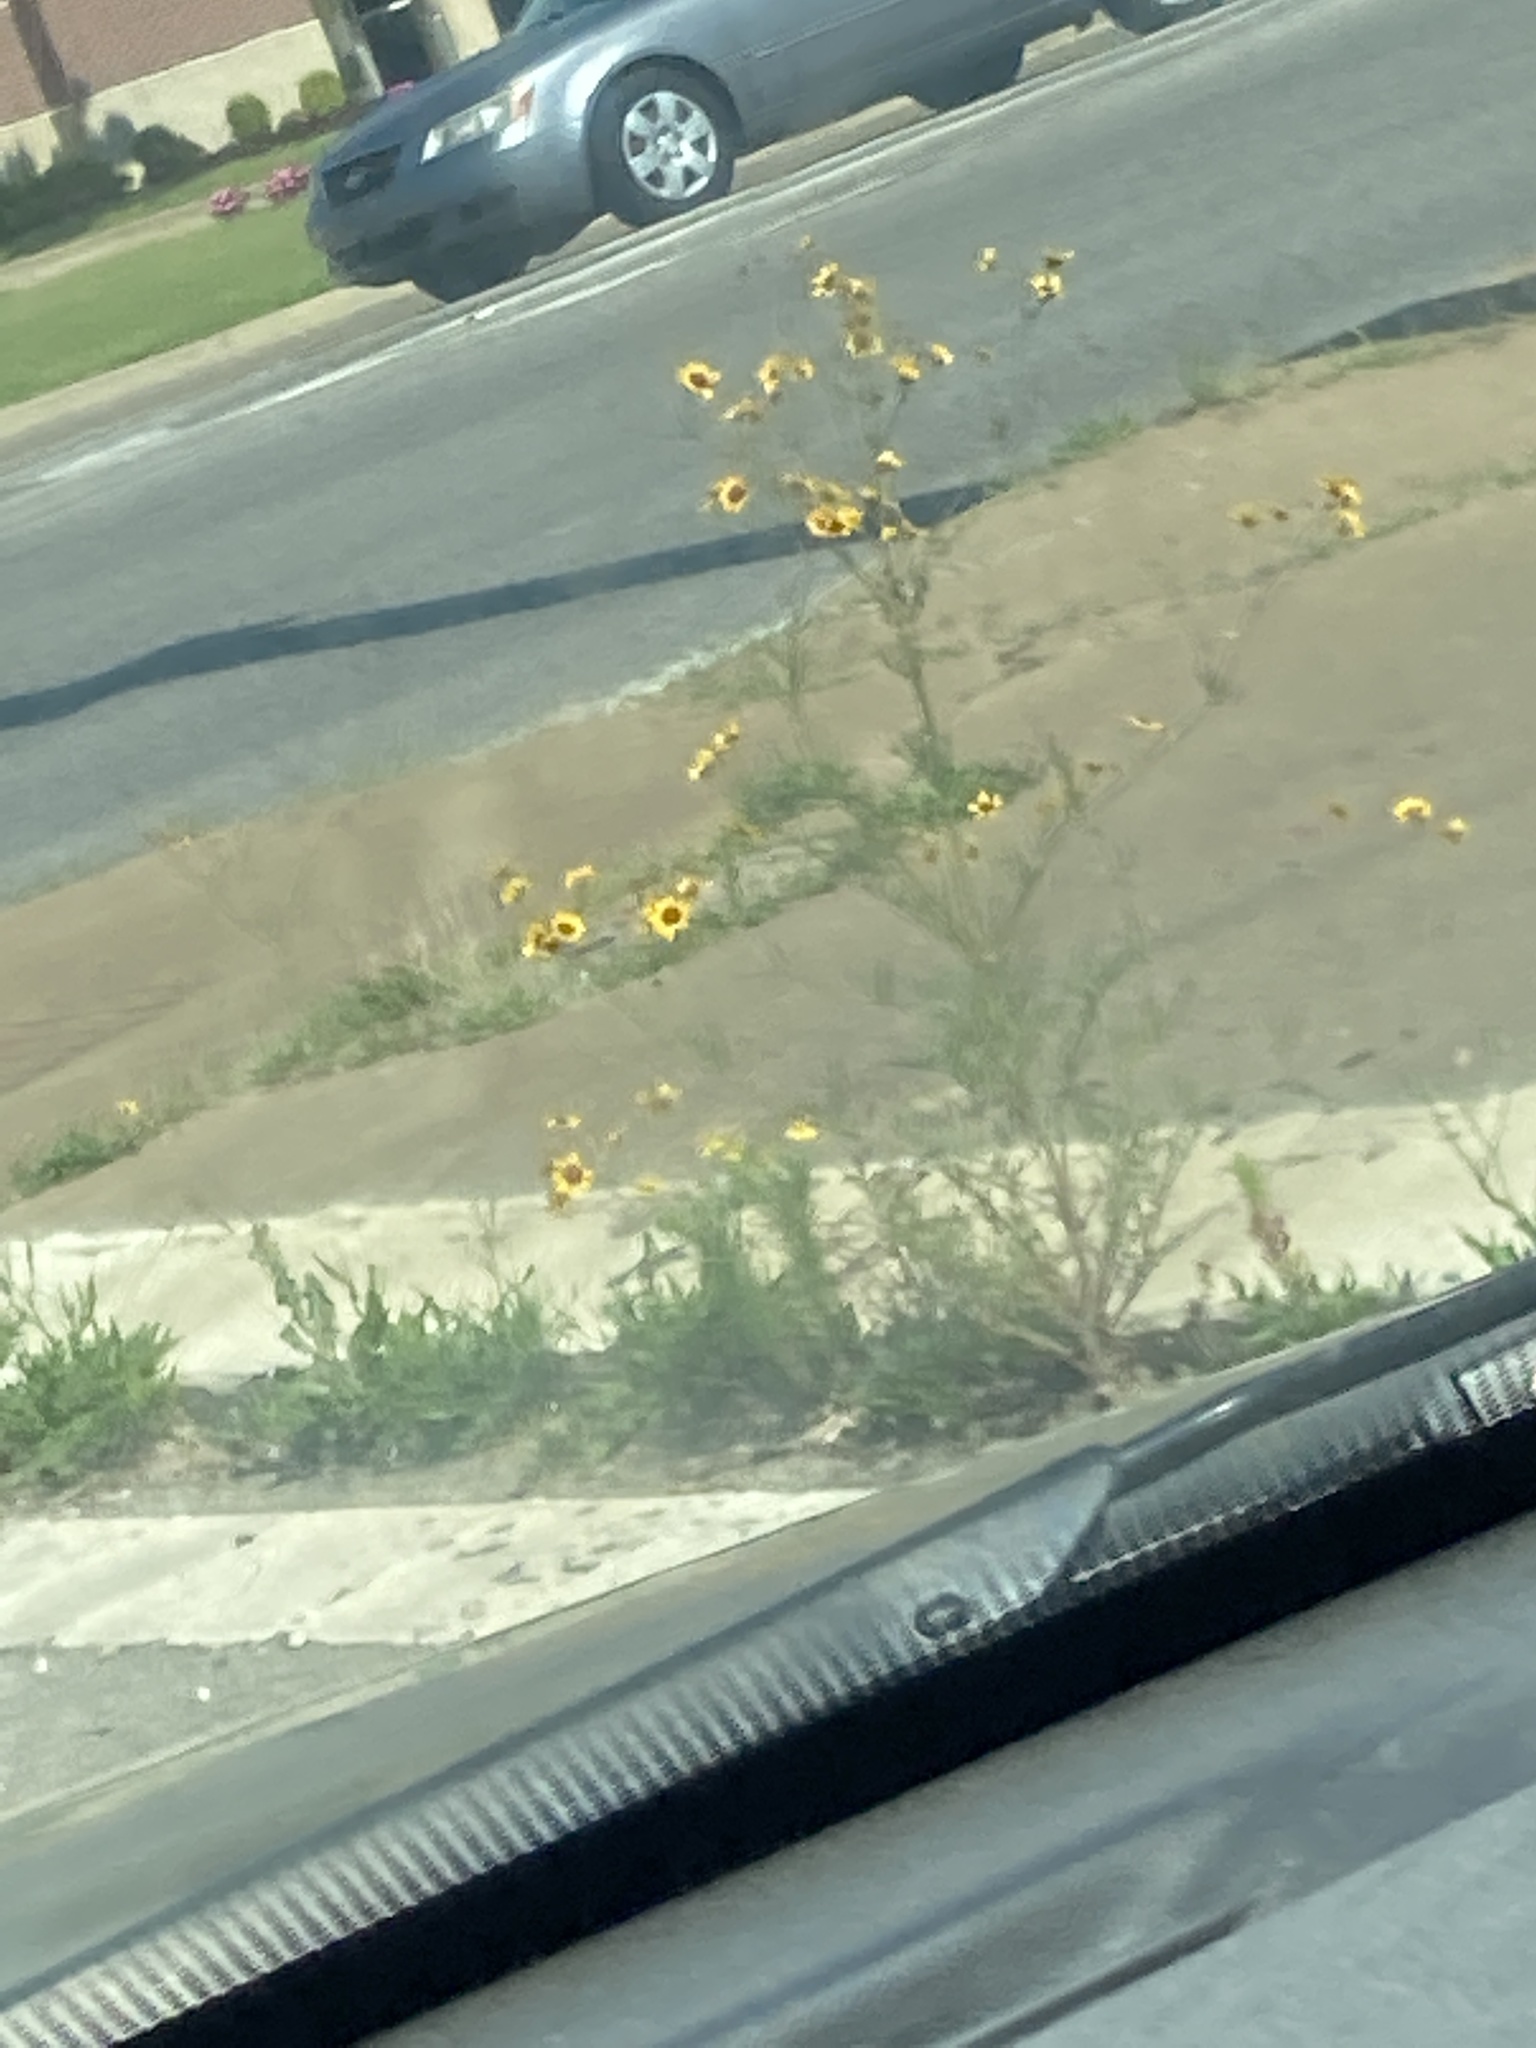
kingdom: Plantae
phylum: Tracheophyta
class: Magnoliopsida
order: Asterales
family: Asteraceae
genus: Coreopsis
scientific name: Coreopsis tinctoria
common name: Garden tickseed
